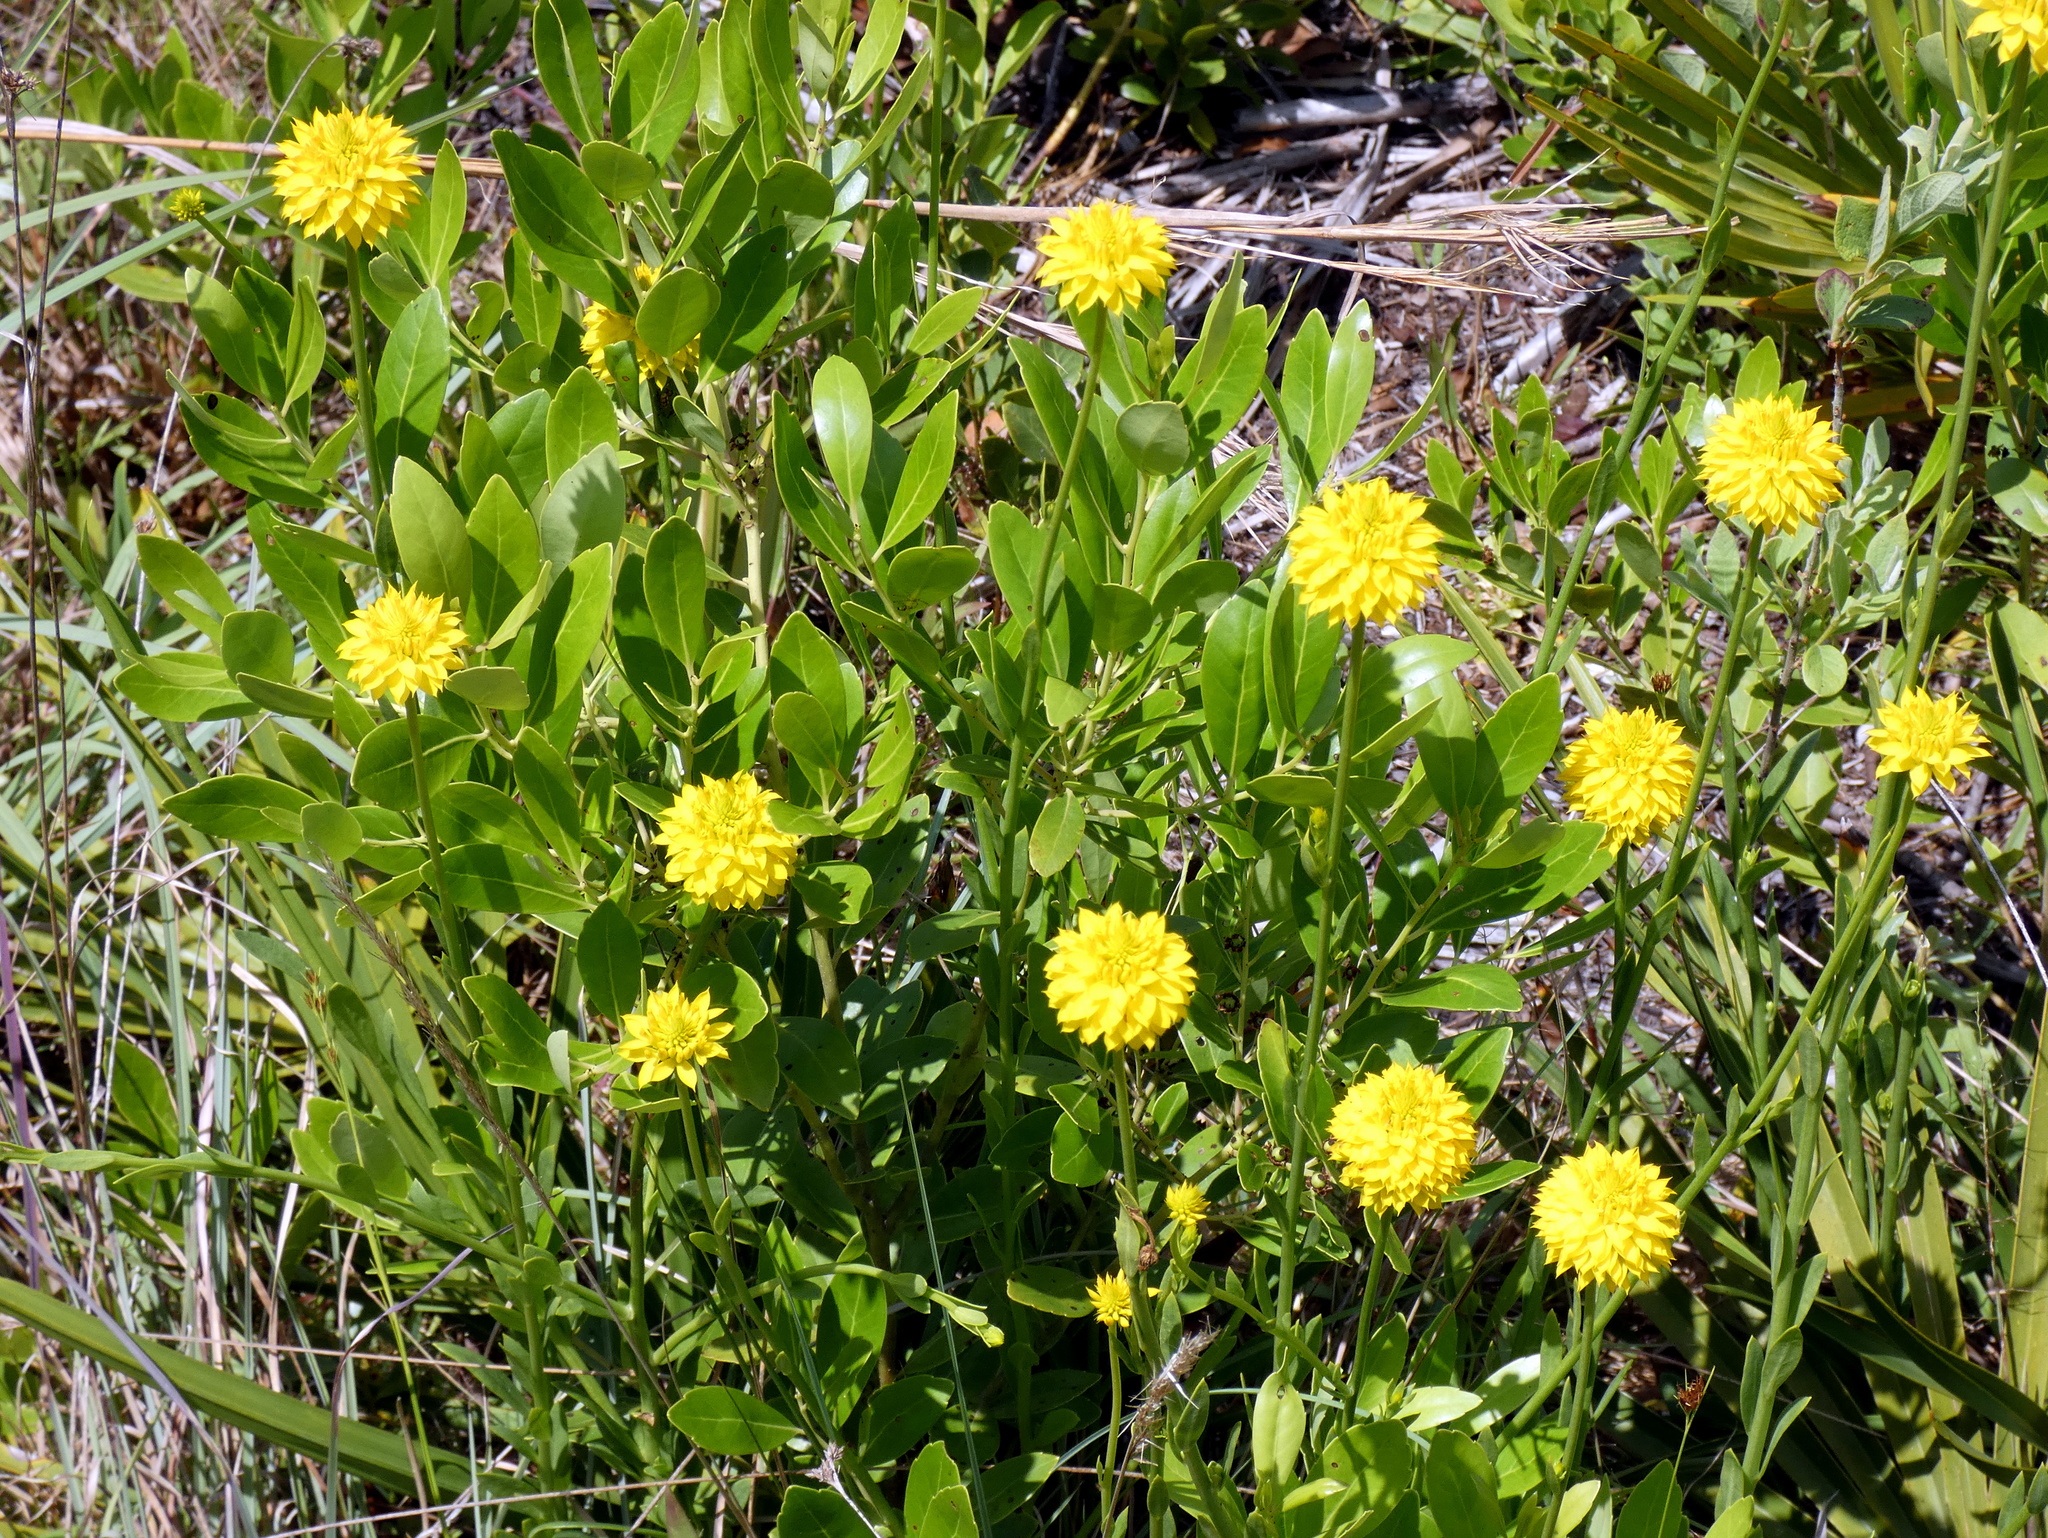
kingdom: Plantae
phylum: Tracheophyta
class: Magnoliopsida
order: Fabales
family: Polygalaceae
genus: Polygala
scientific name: Polygala rugelii
